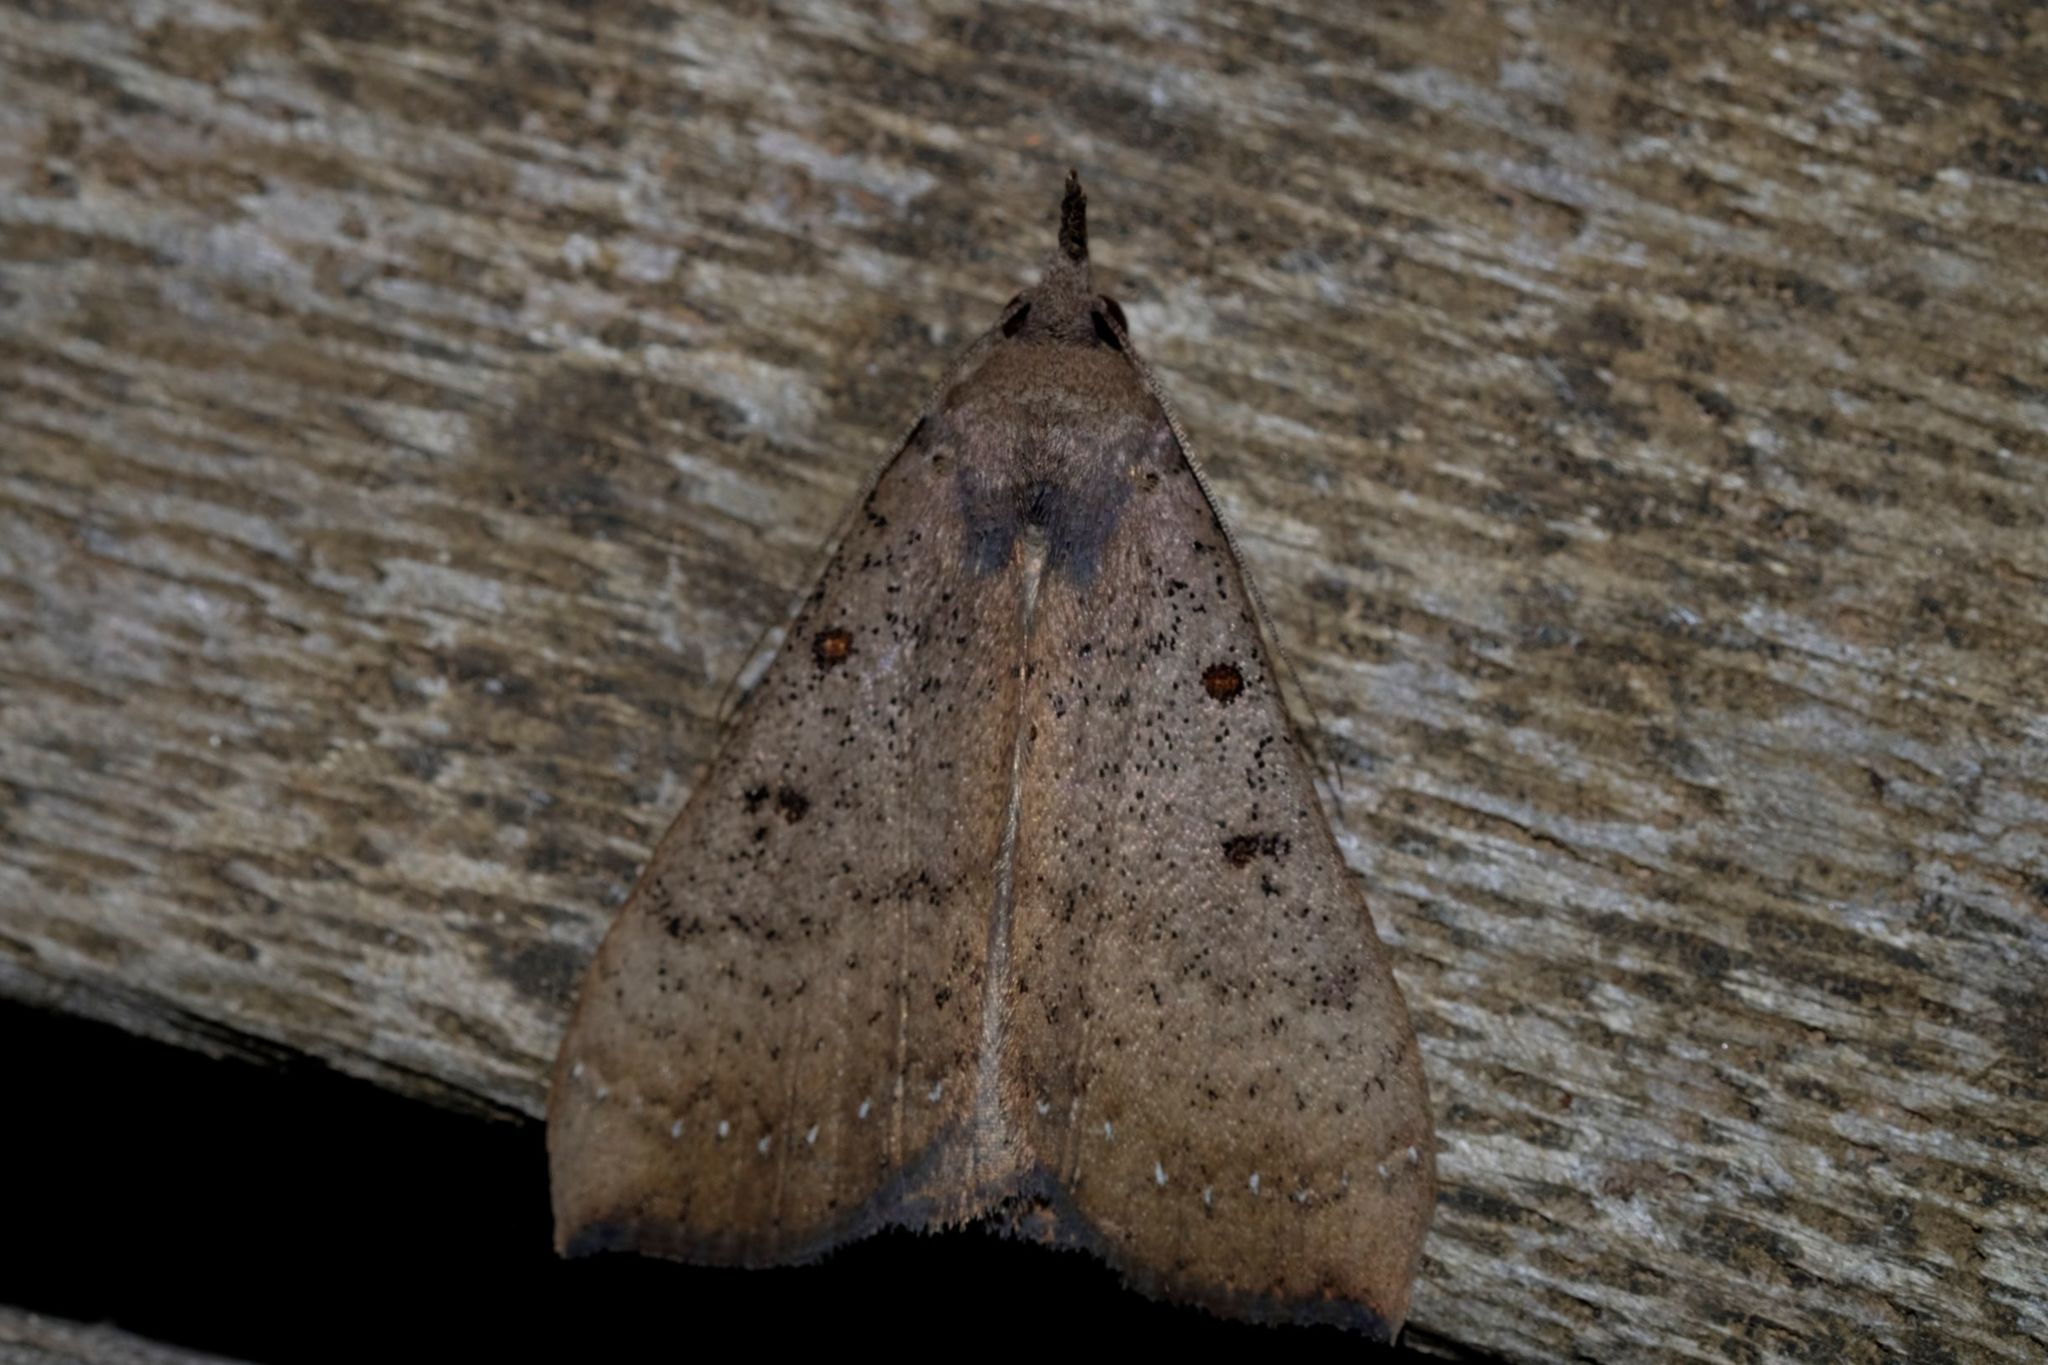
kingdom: Animalia
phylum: Arthropoda
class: Insecta
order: Lepidoptera
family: Erebidae
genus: Rhapsa
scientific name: Rhapsa suscitatalis
